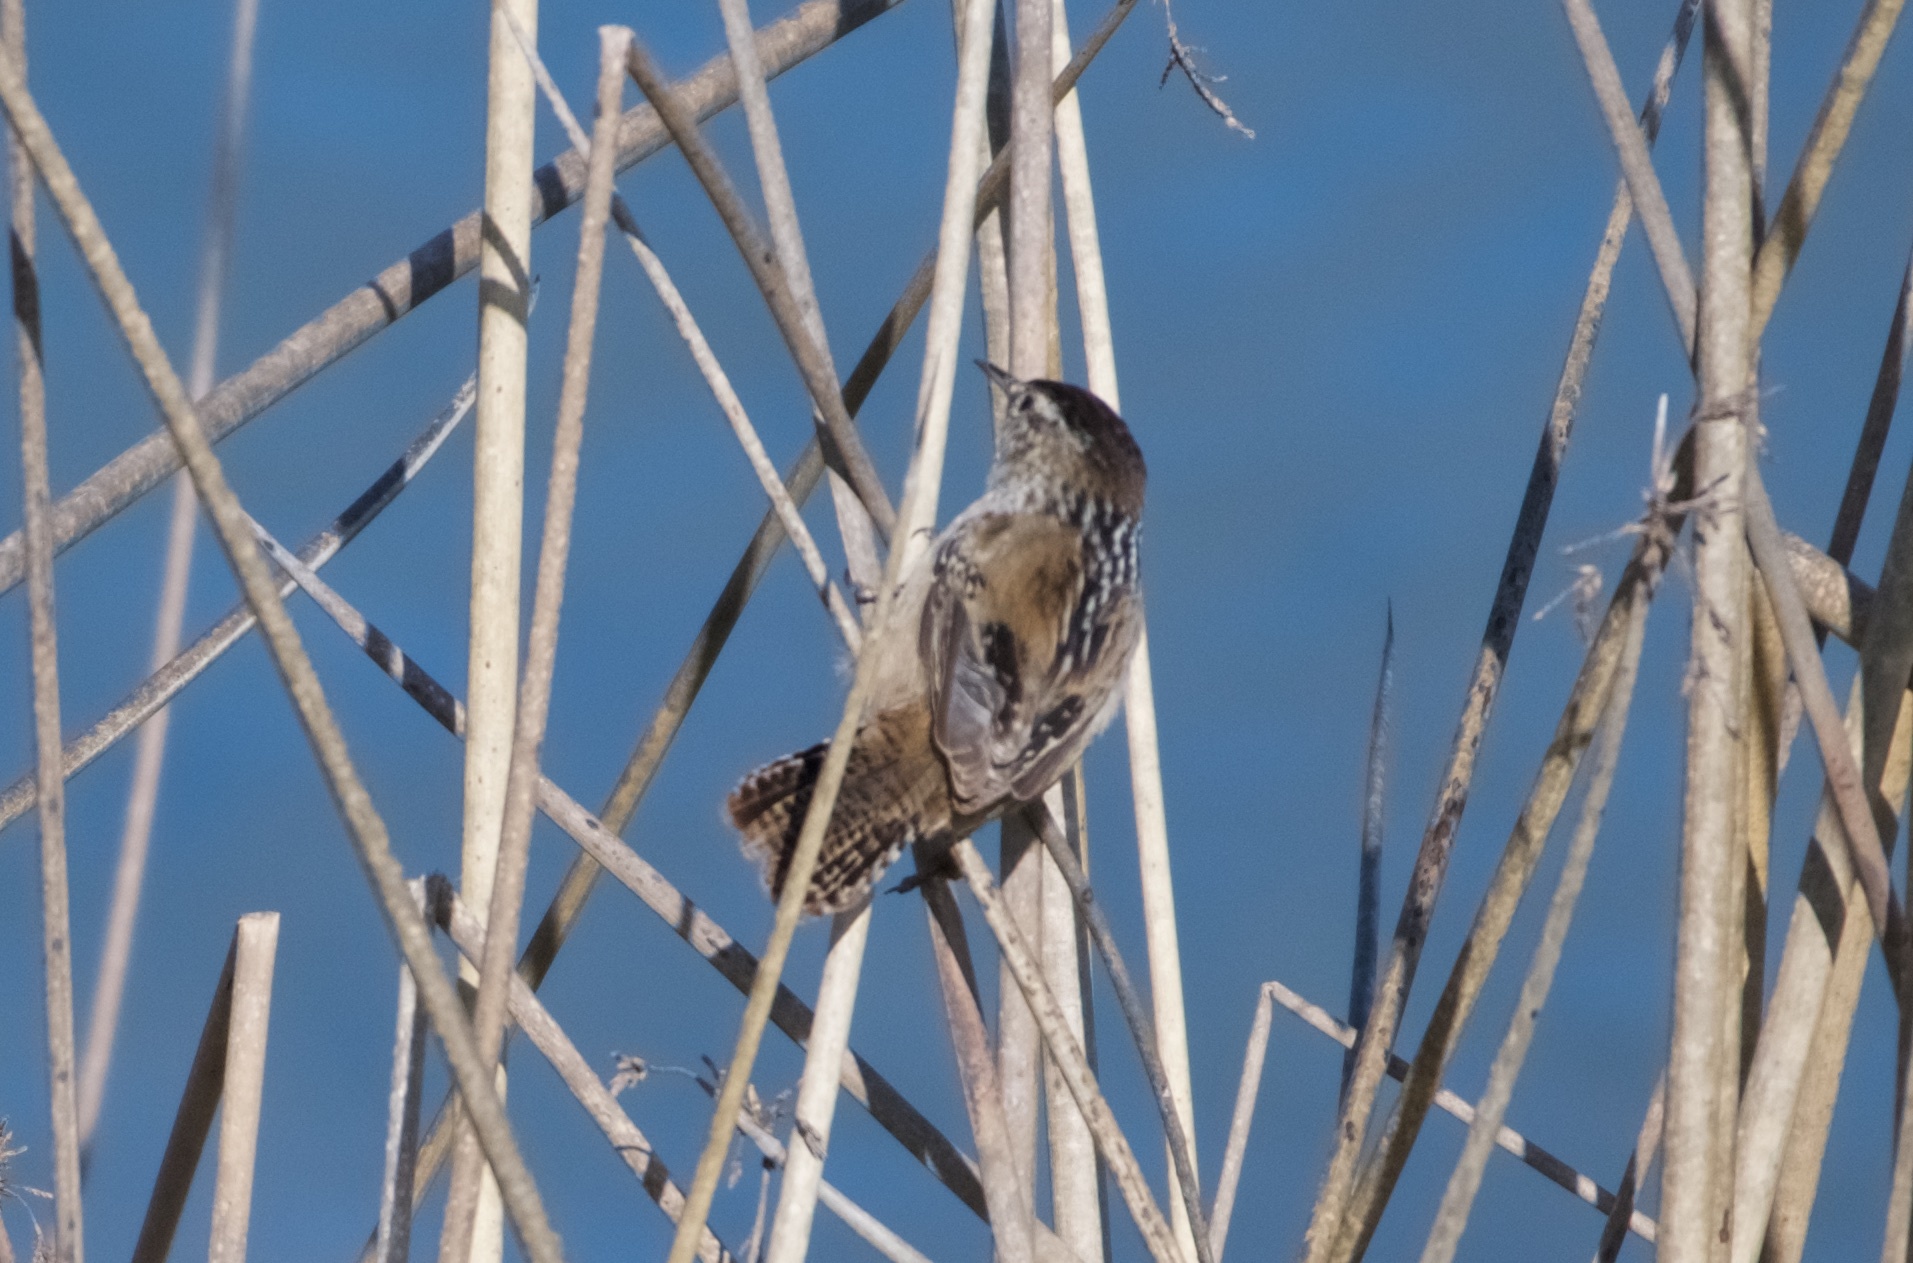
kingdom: Animalia
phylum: Chordata
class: Aves
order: Passeriformes
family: Troglodytidae
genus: Cistothorus
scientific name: Cistothorus palustris
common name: Marsh wren
